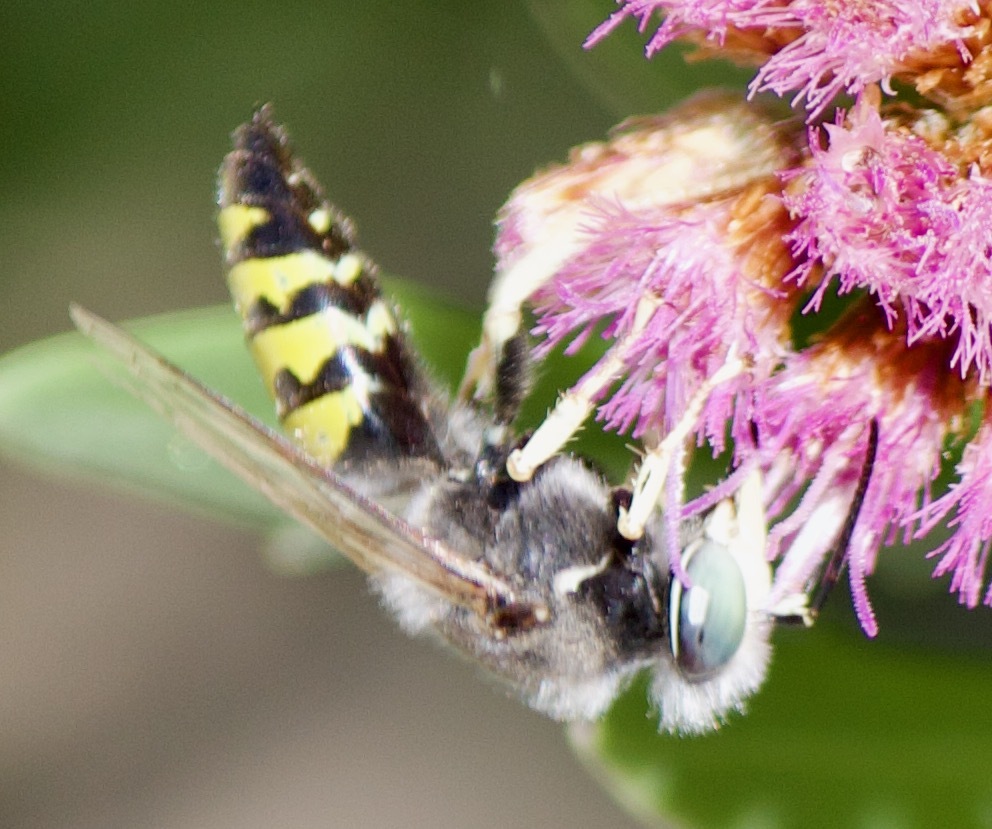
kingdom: Animalia
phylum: Arthropoda
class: Insecta
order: Hymenoptera
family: Crabronidae
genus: Bembix
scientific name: Bembix brullei
